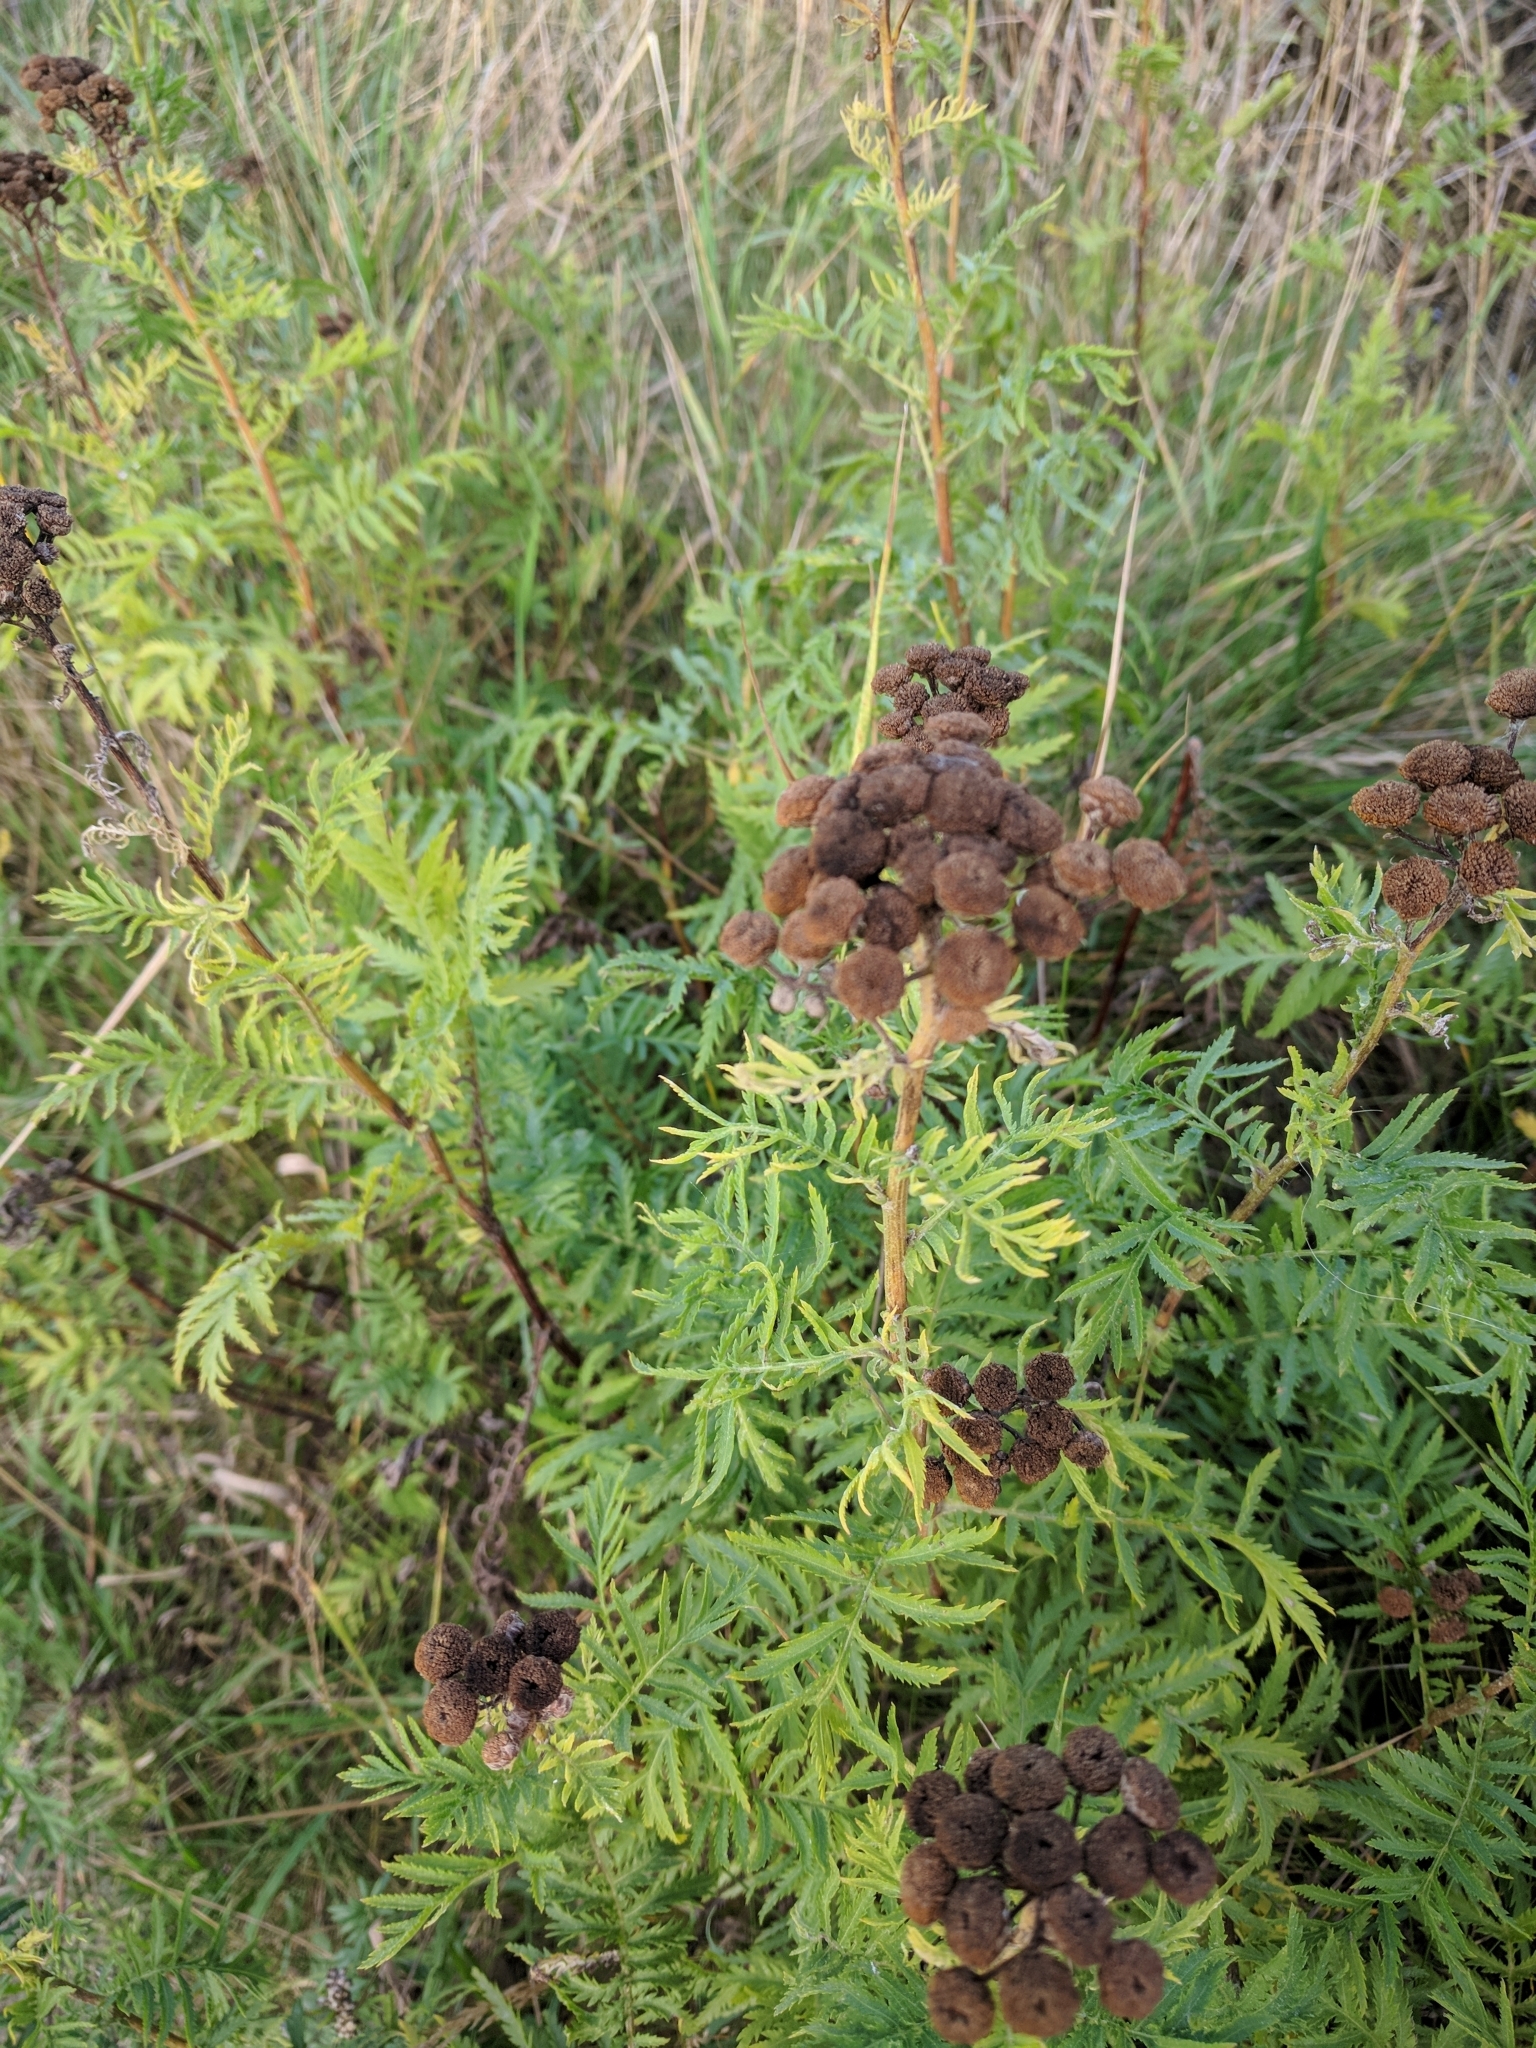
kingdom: Plantae
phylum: Tracheophyta
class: Magnoliopsida
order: Asterales
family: Asteraceae
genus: Tanacetum
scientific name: Tanacetum vulgare
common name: Common tansy
